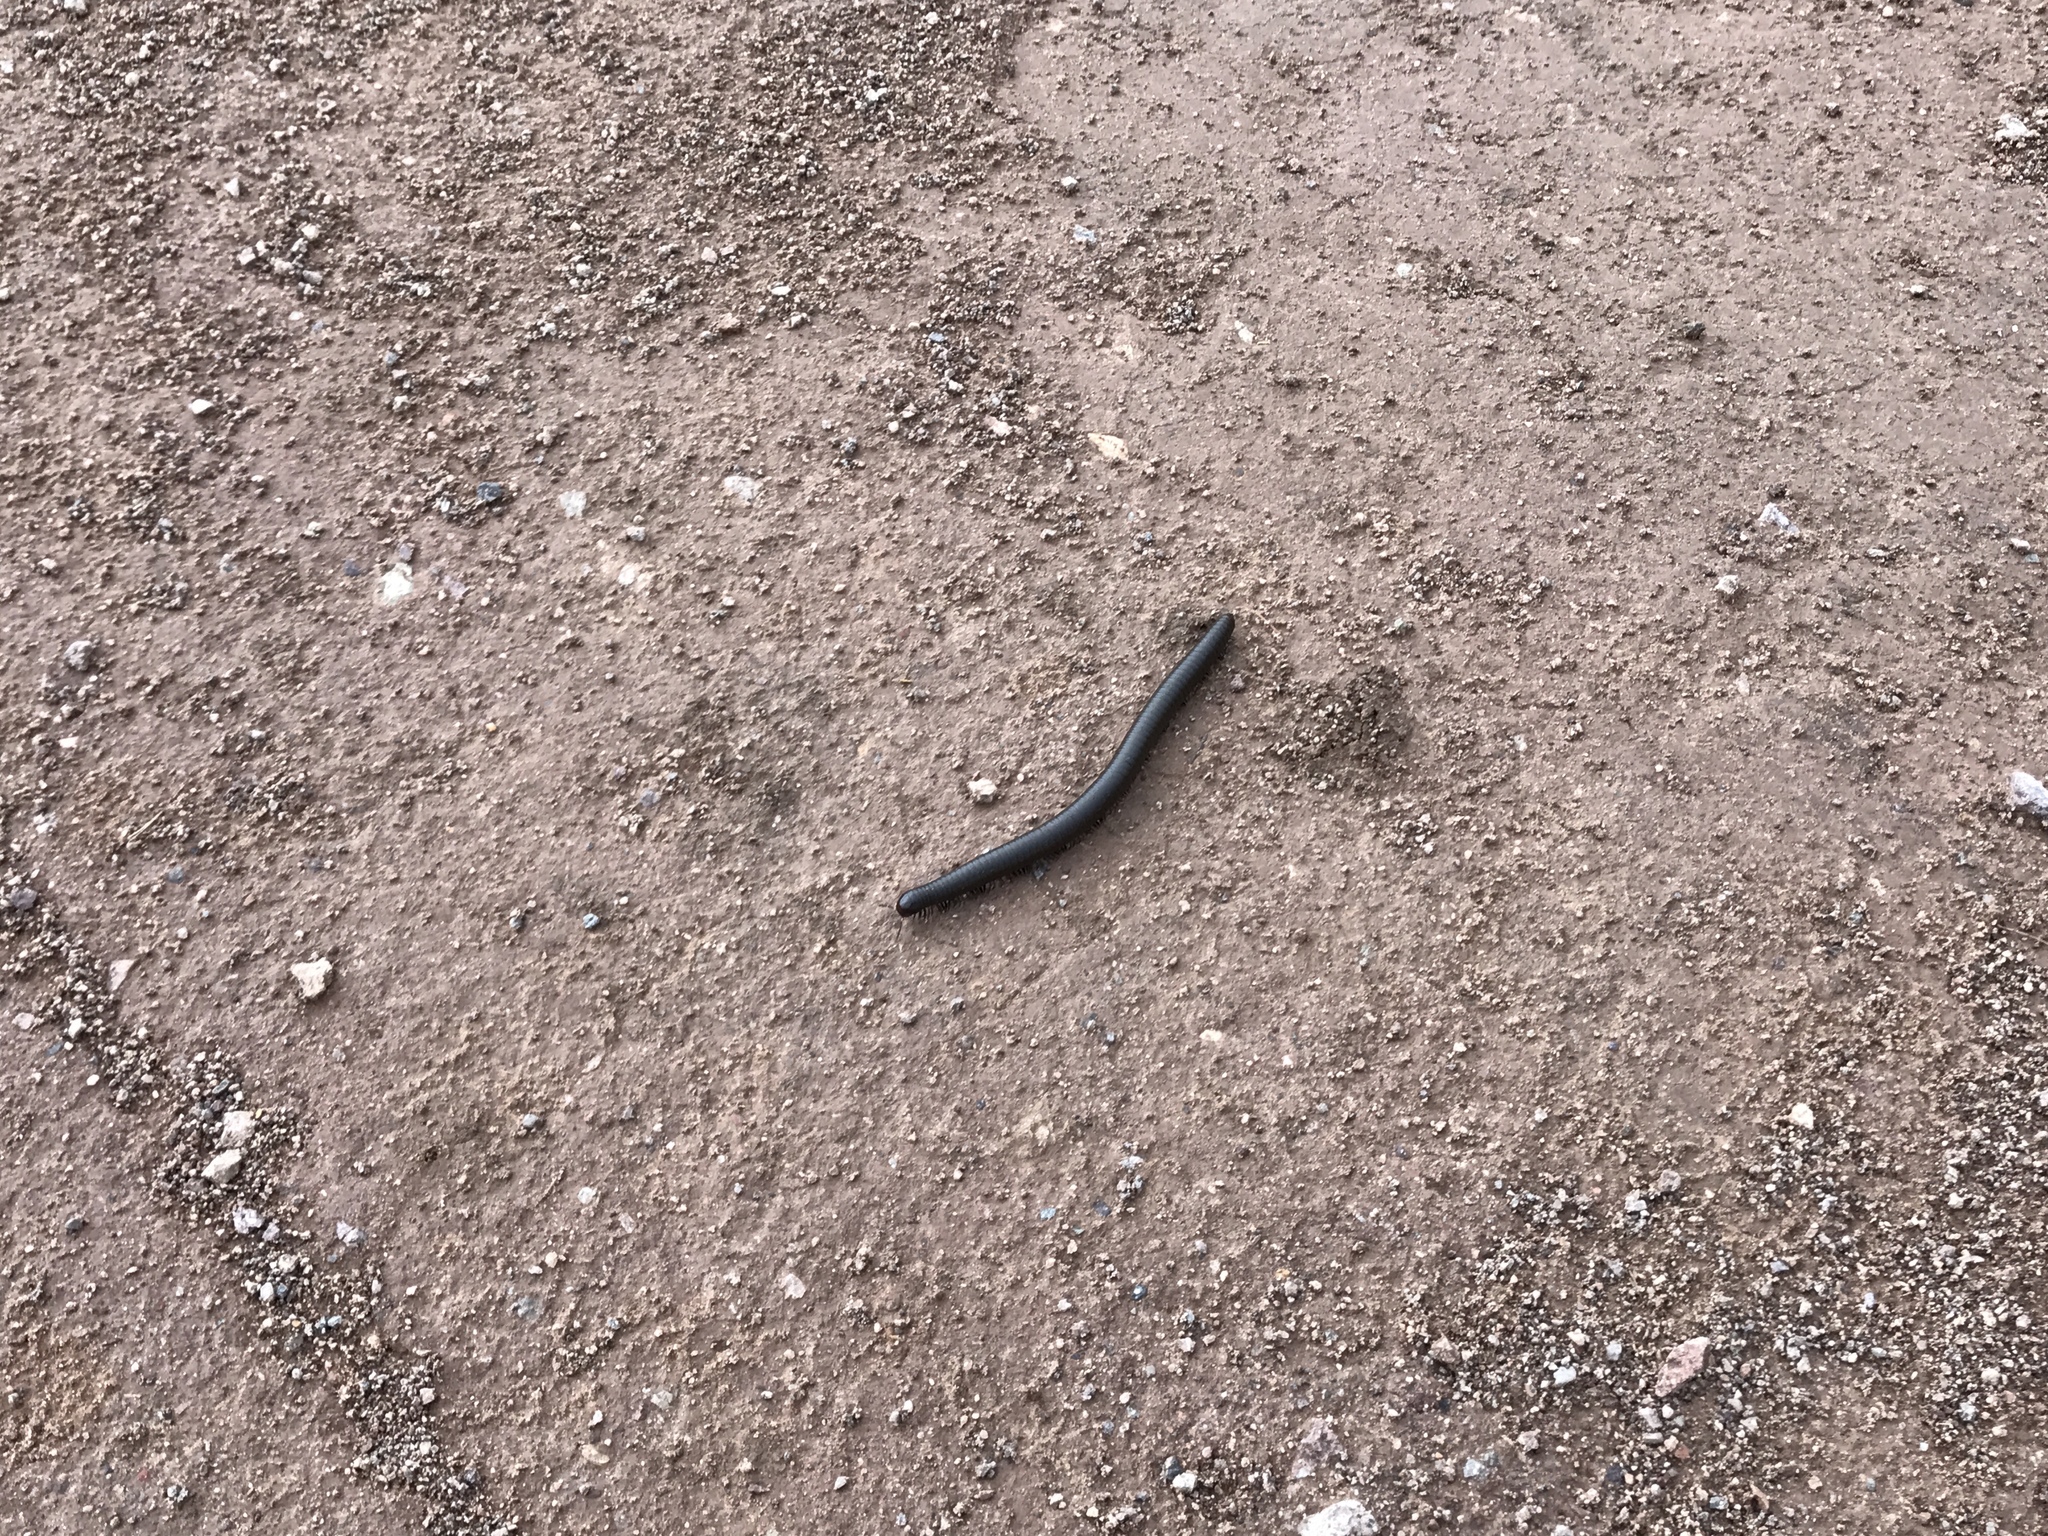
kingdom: Animalia
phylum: Arthropoda
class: Diplopoda
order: Spirostreptida
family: Spirostreptidae
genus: Orthoporus
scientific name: Orthoporus ornatus
